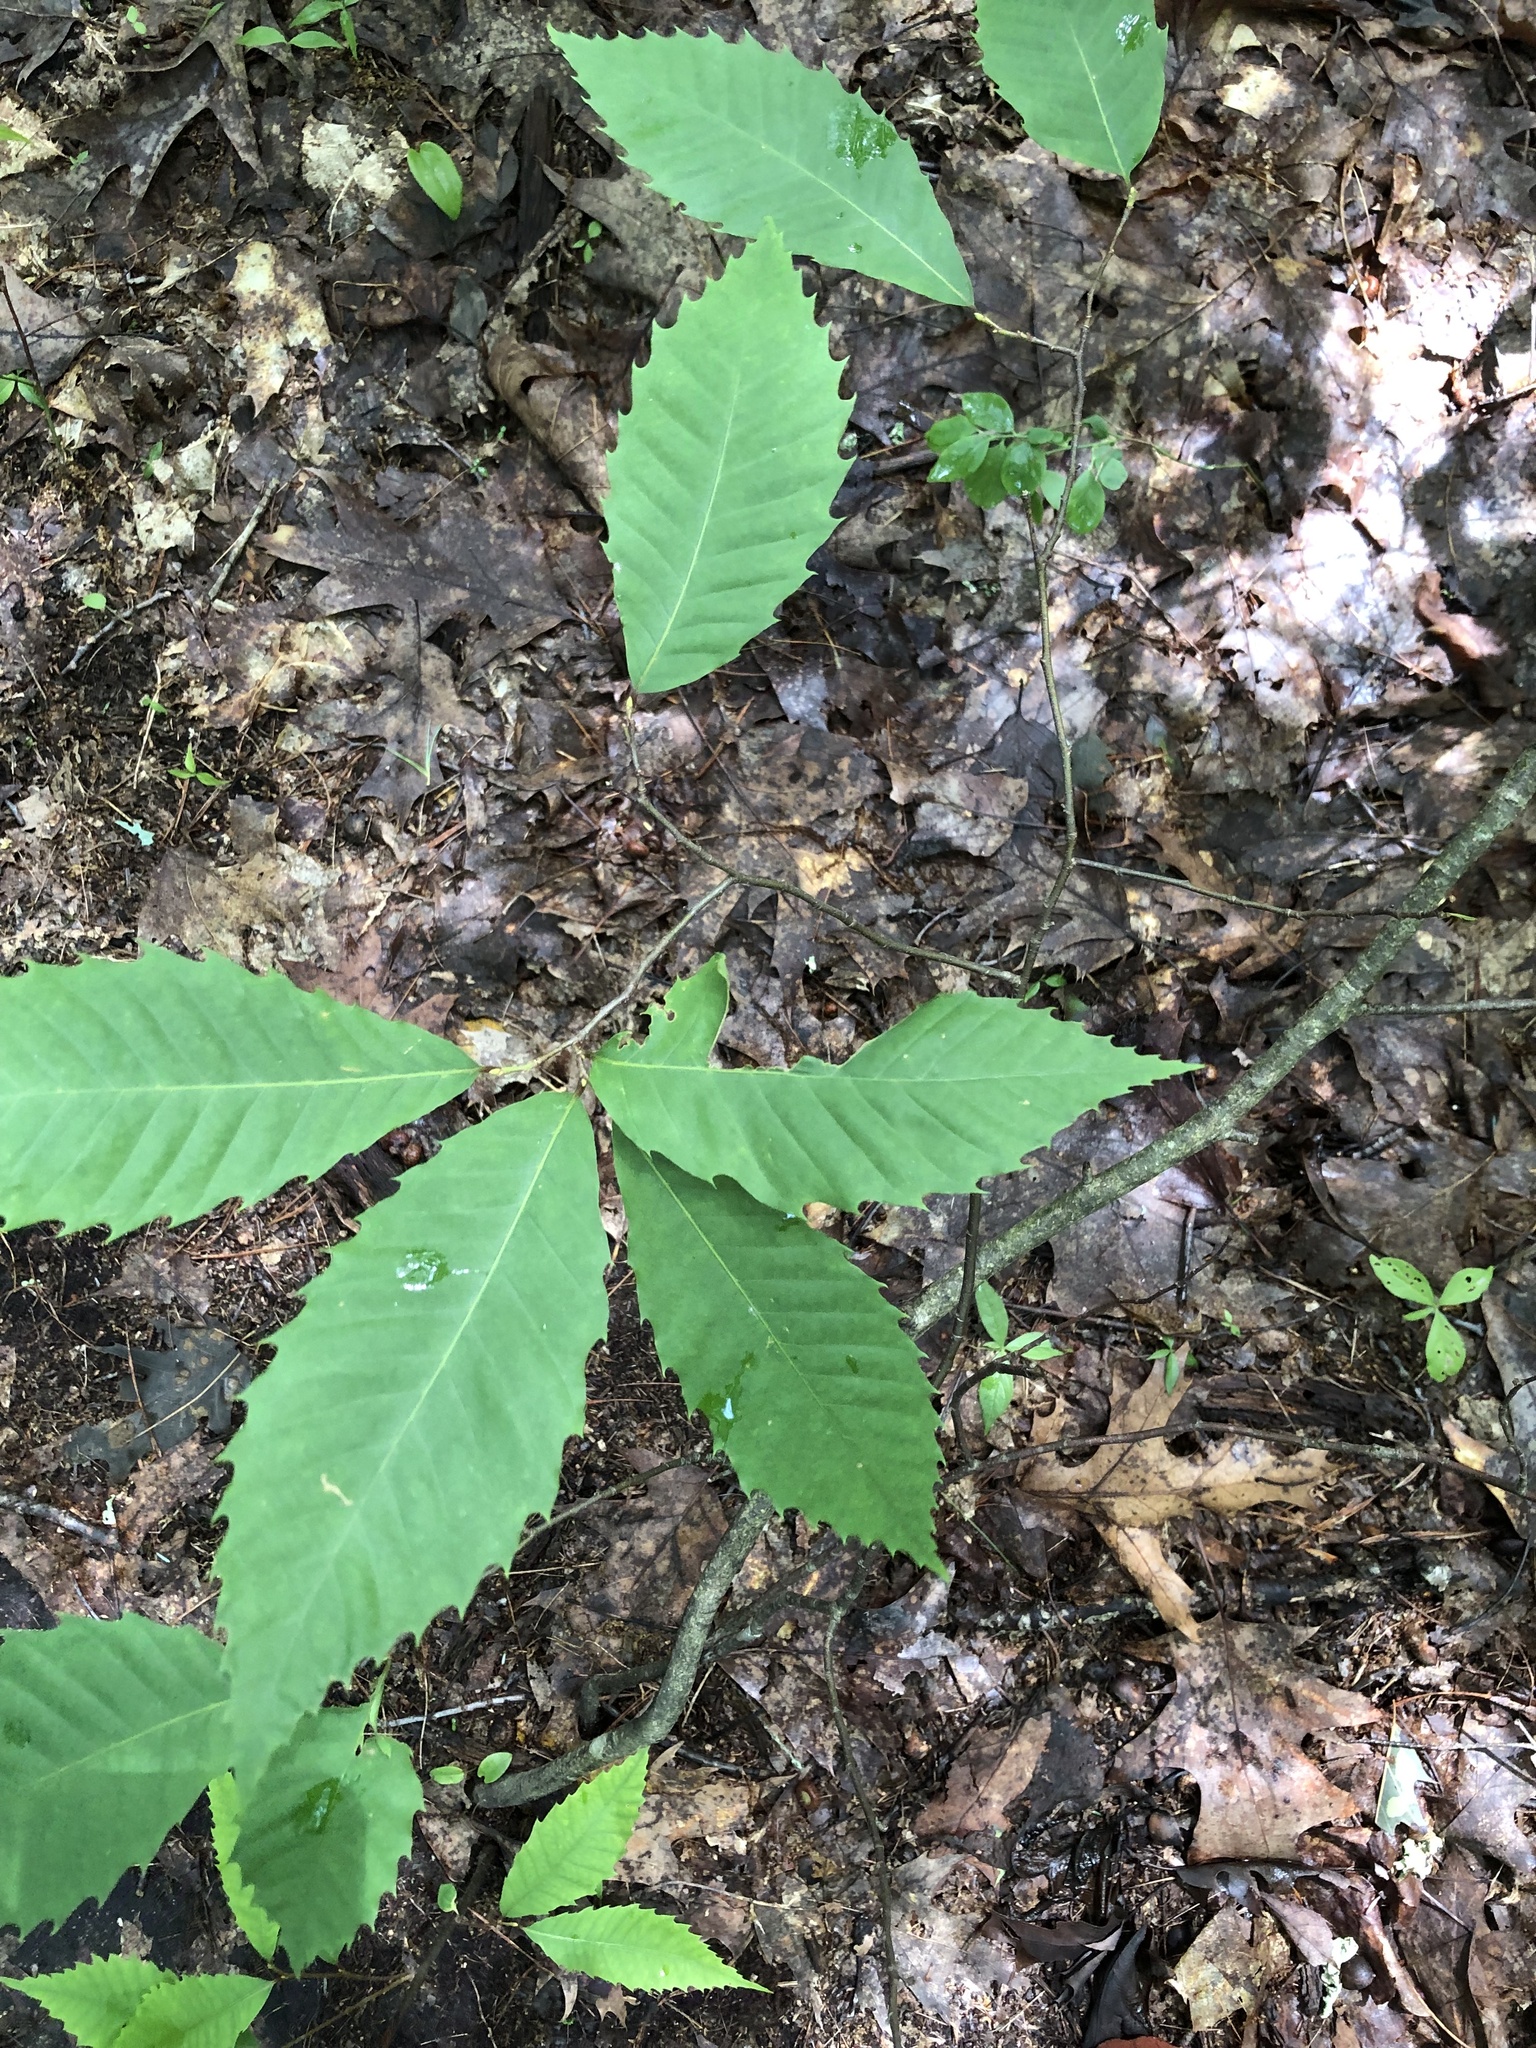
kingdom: Plantae
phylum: Tracheophyta
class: Magnoliopsida
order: Fagales
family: Fagaceae
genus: Castanea
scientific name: Castanea dentata
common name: American chestnut
